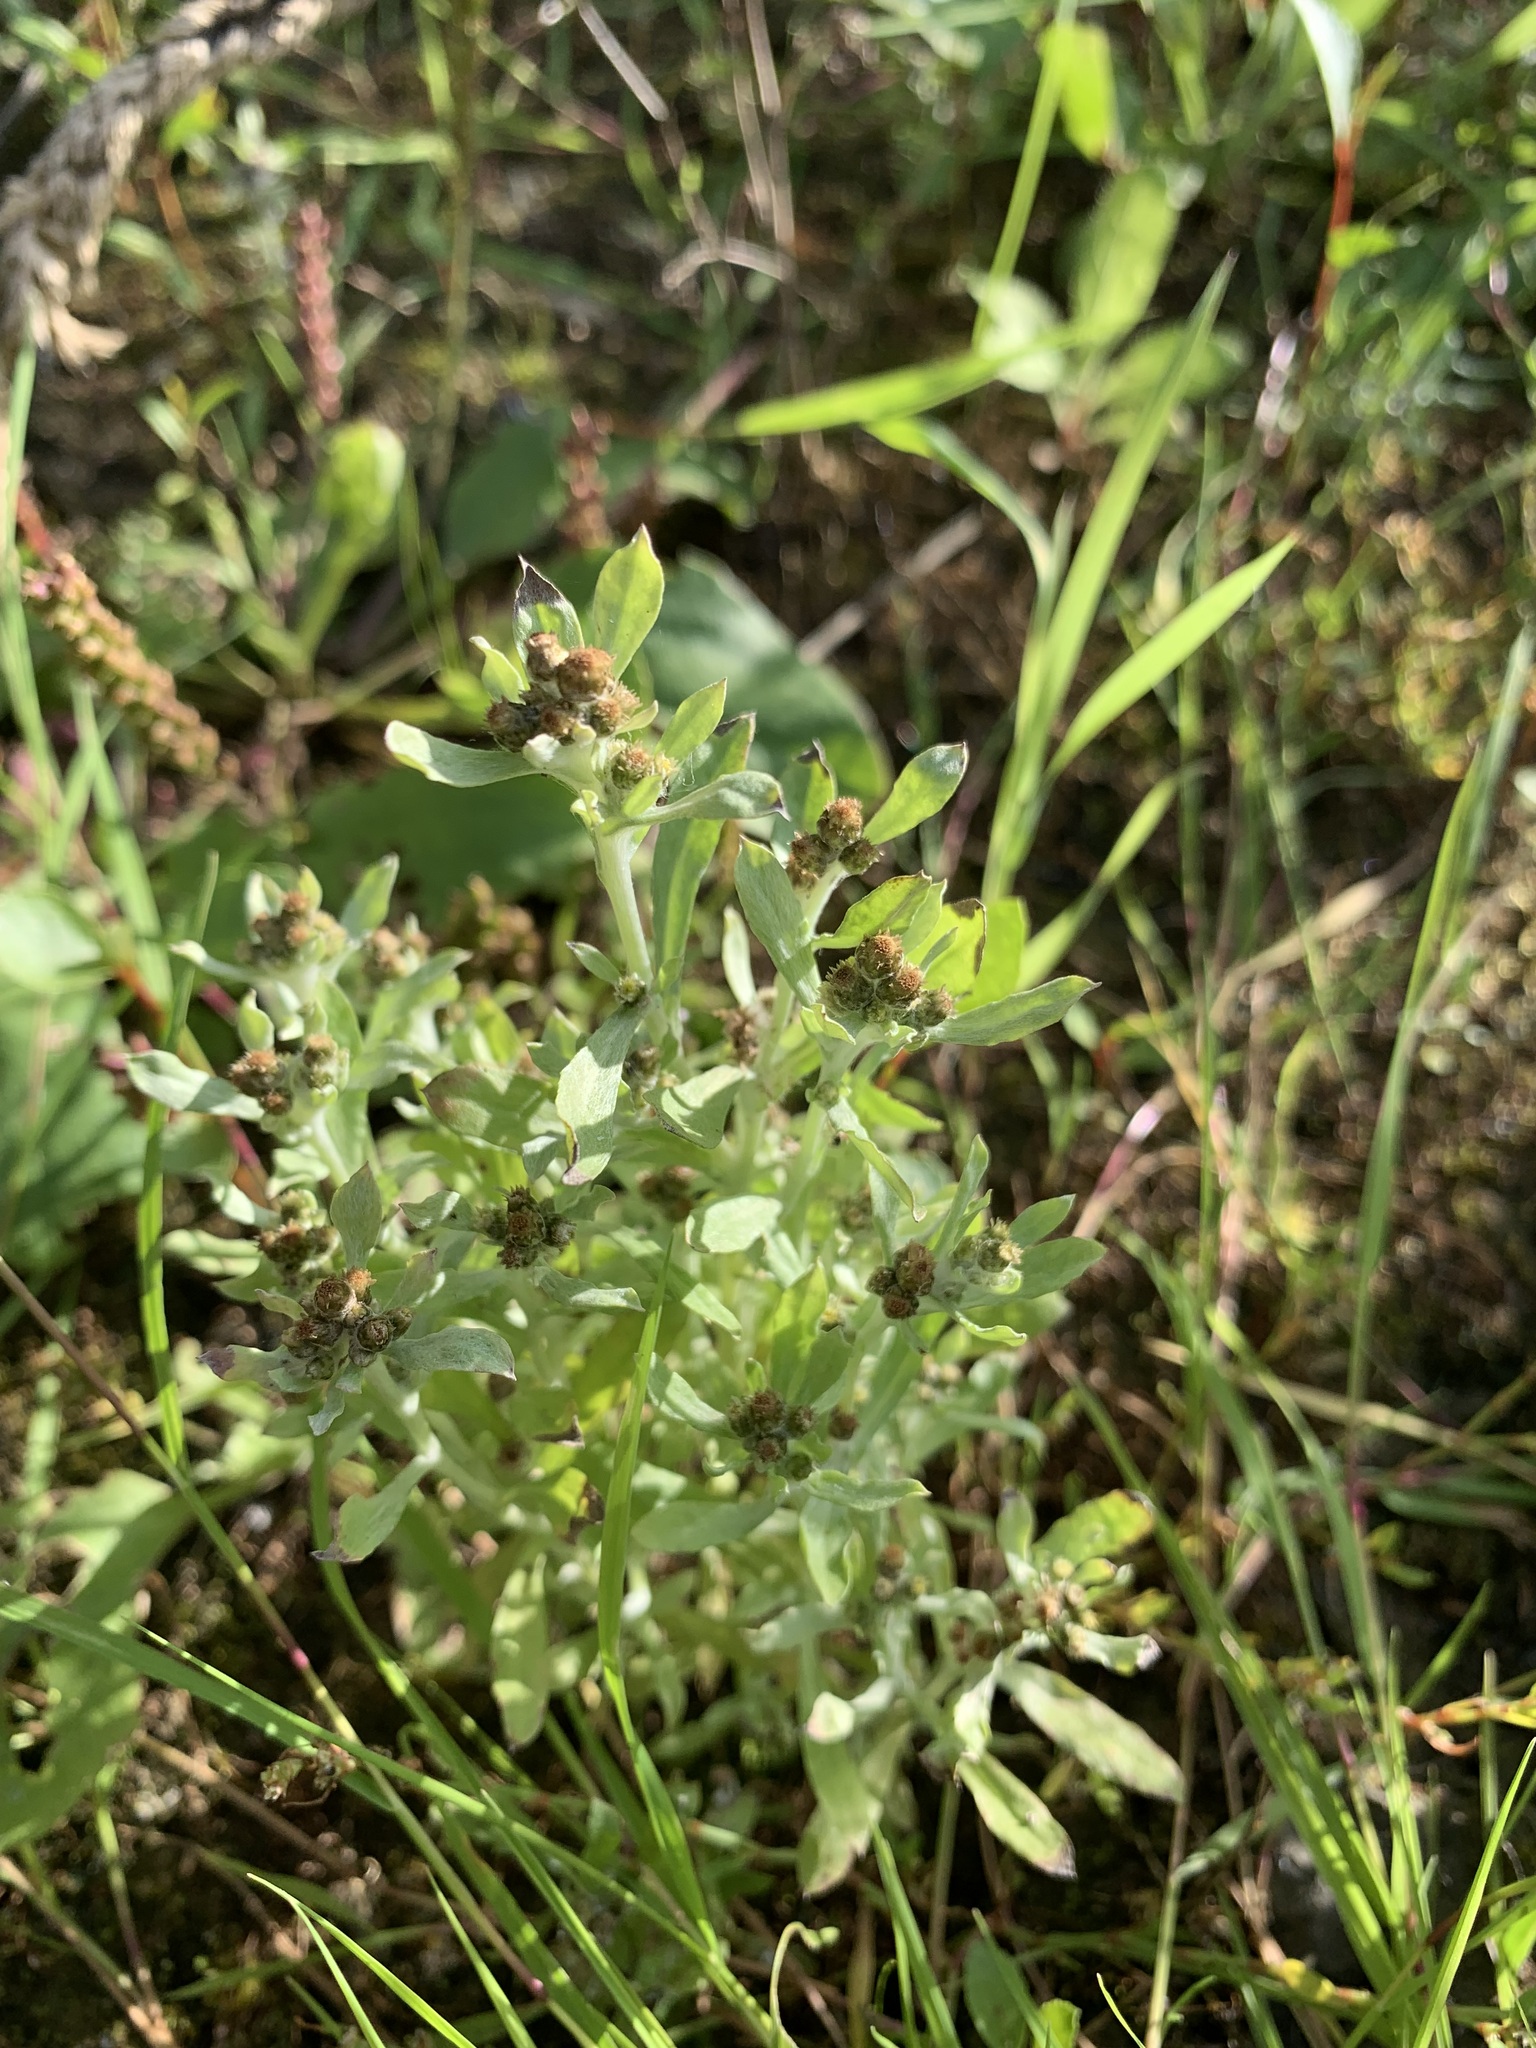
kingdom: Plantae
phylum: Tracheophyta
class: Magnoliopsida
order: Asterales
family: Asteraceae
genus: Gnaphalium
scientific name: Gnaphalium uliginosum
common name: Marsh cudweed
